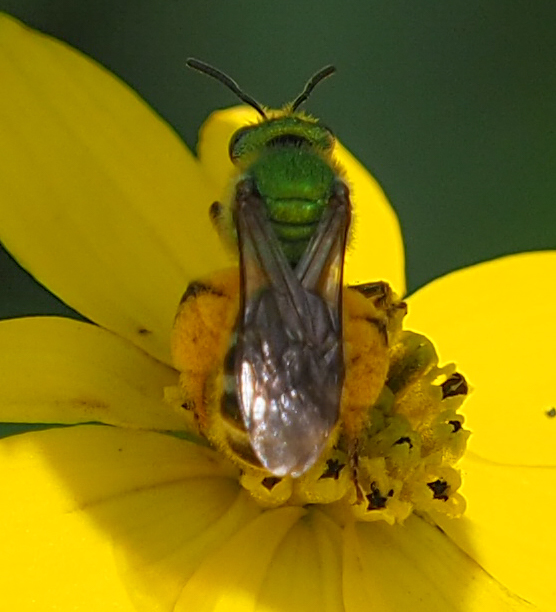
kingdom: Animalia
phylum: Arthropoda
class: Insecta
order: Hymenoptera
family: Halictidae
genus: Agapostemon
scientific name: Agapostemon virescens
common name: Bicolored striped sweat bee
